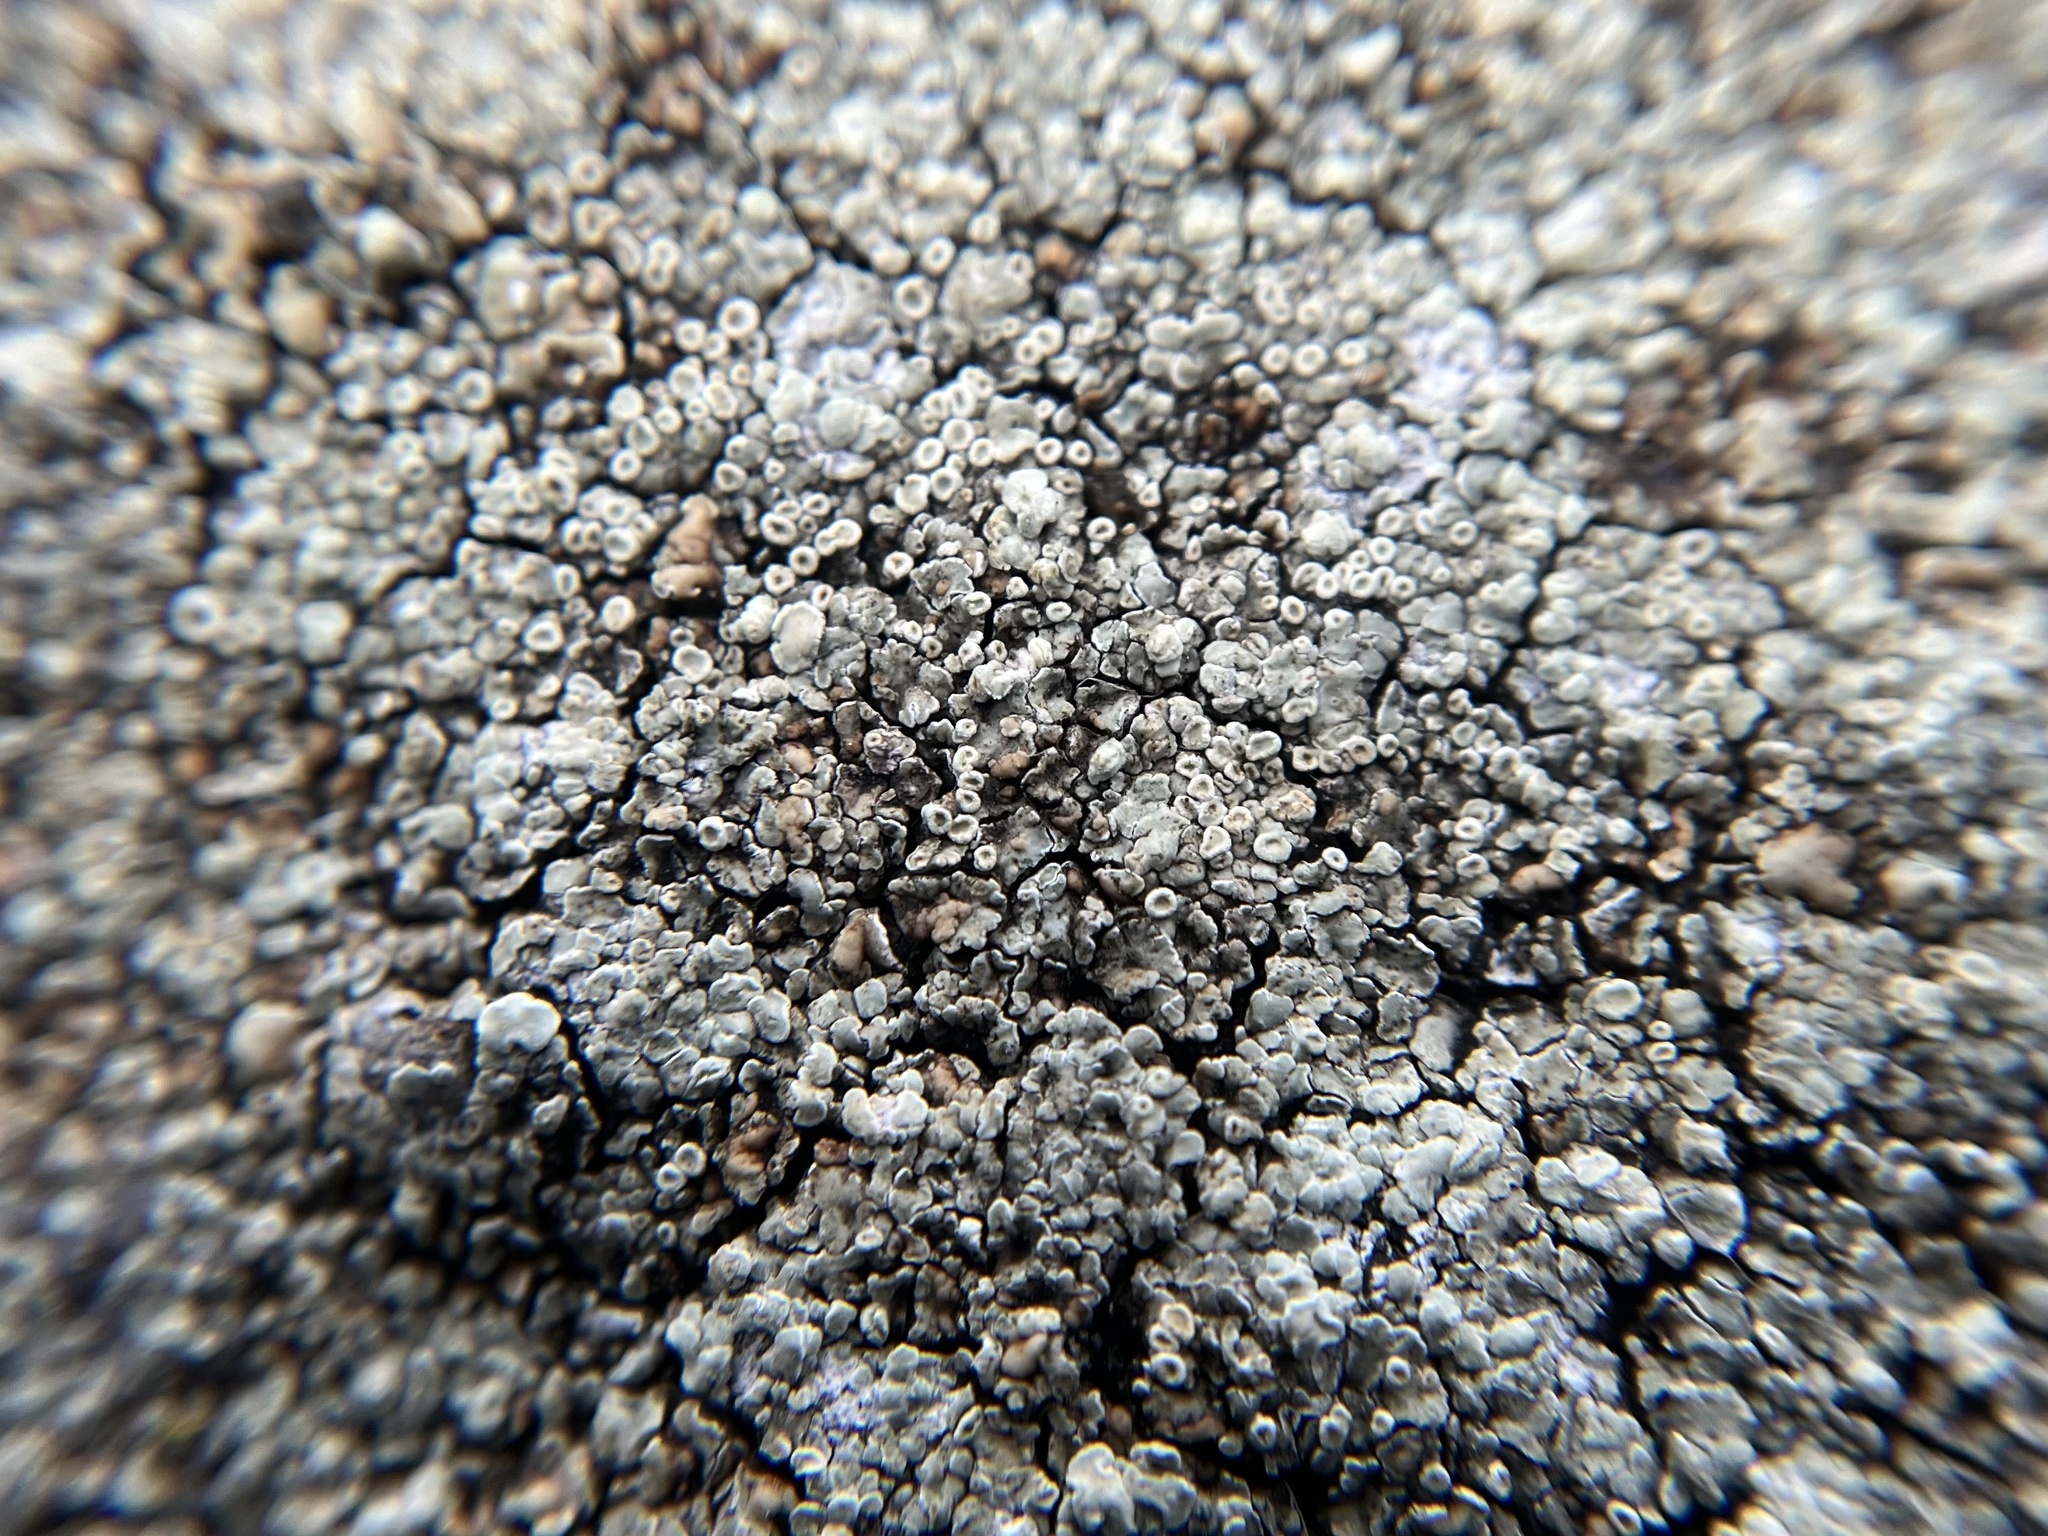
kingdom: Fungi
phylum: Ascomycota
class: Lecanoromycetes
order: Lecanorales
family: Lecanoraceae
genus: Protoparmeliopsis
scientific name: Protoparmeliopsis muralis
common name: Stonewall rim lichen
